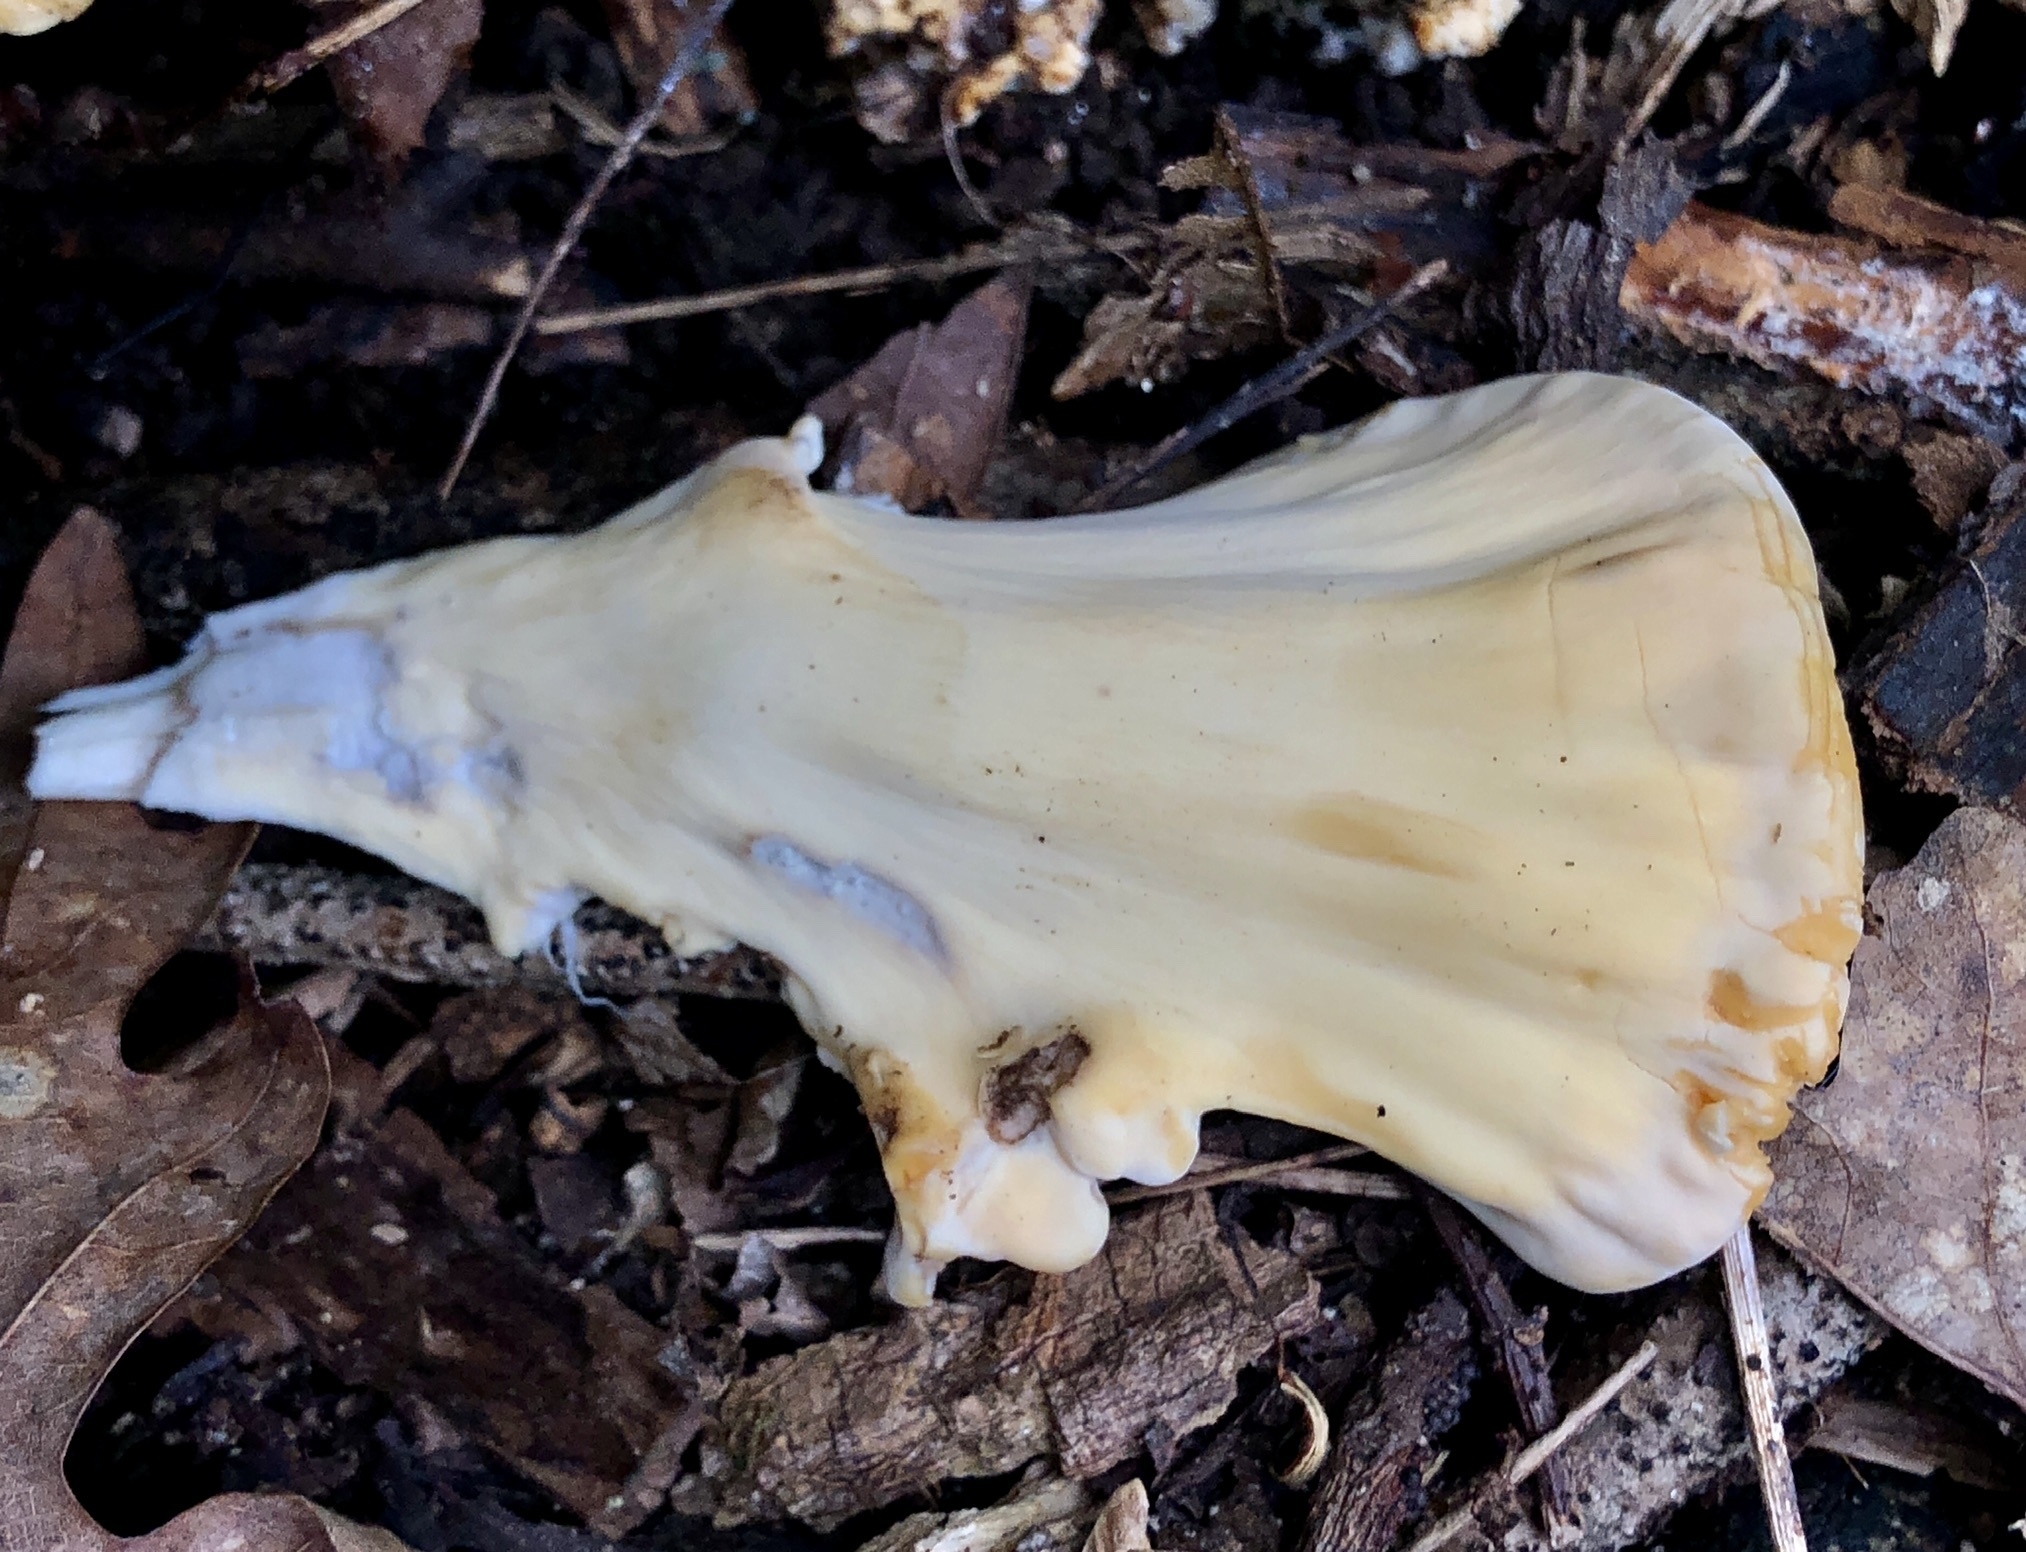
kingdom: Fungi
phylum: Basidiomycota
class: Agaricomycetes
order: Polyporales
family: Meripilaceae
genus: Meripilus
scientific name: Meripilus sumstinei
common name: Black-staining polypore
